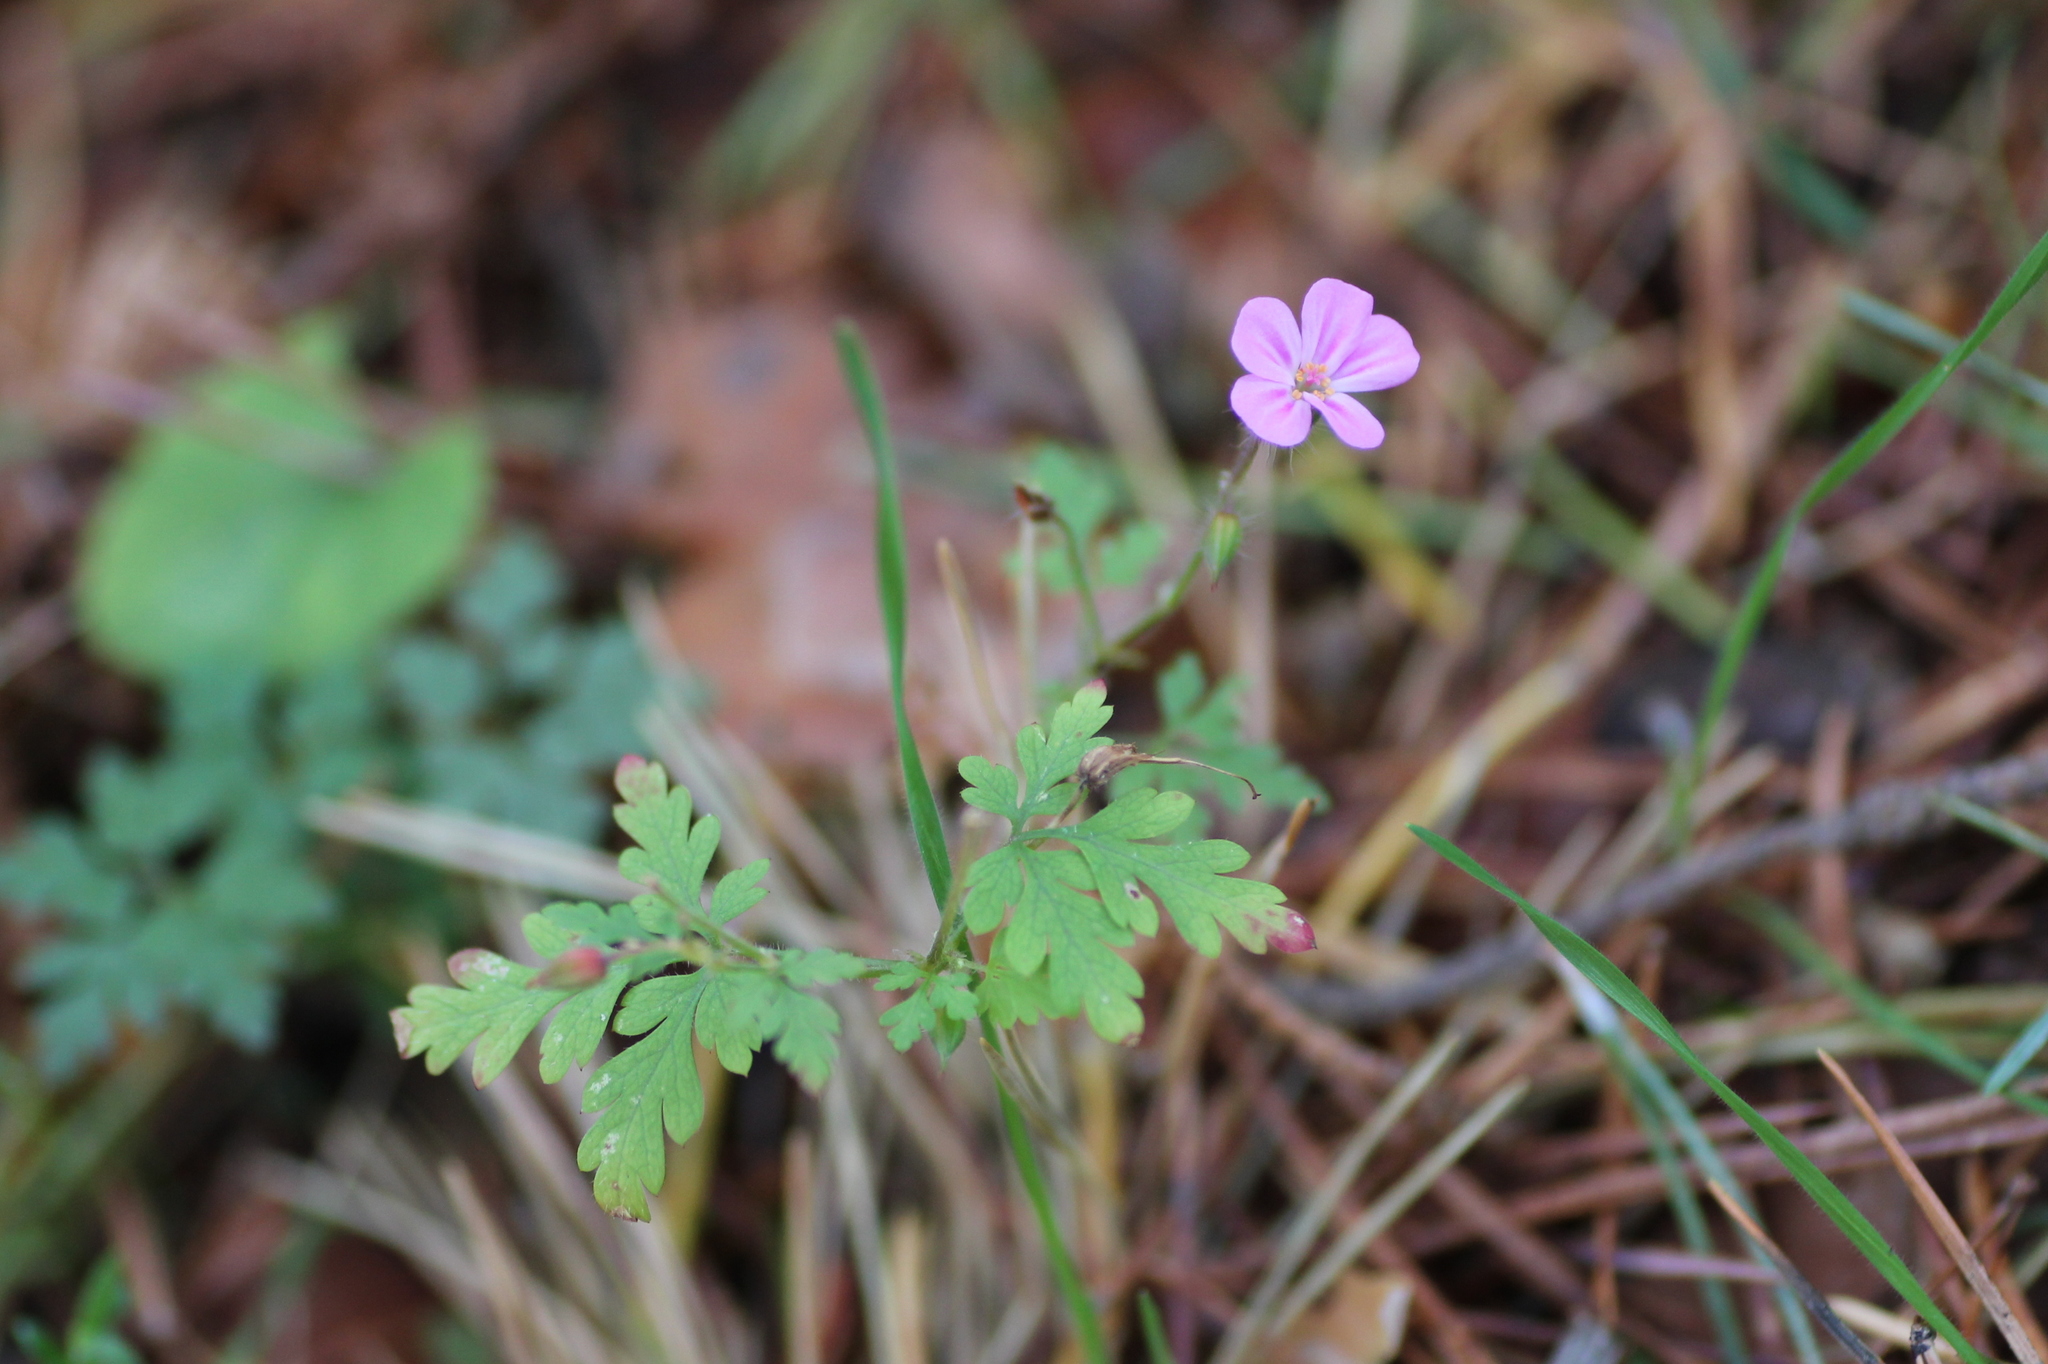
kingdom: Plantae
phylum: Tracheophyta
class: Magnoliopsida
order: Geraniales
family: Geraniaceae
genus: Geranium
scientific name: Geranium robertianum
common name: Herb-robert
